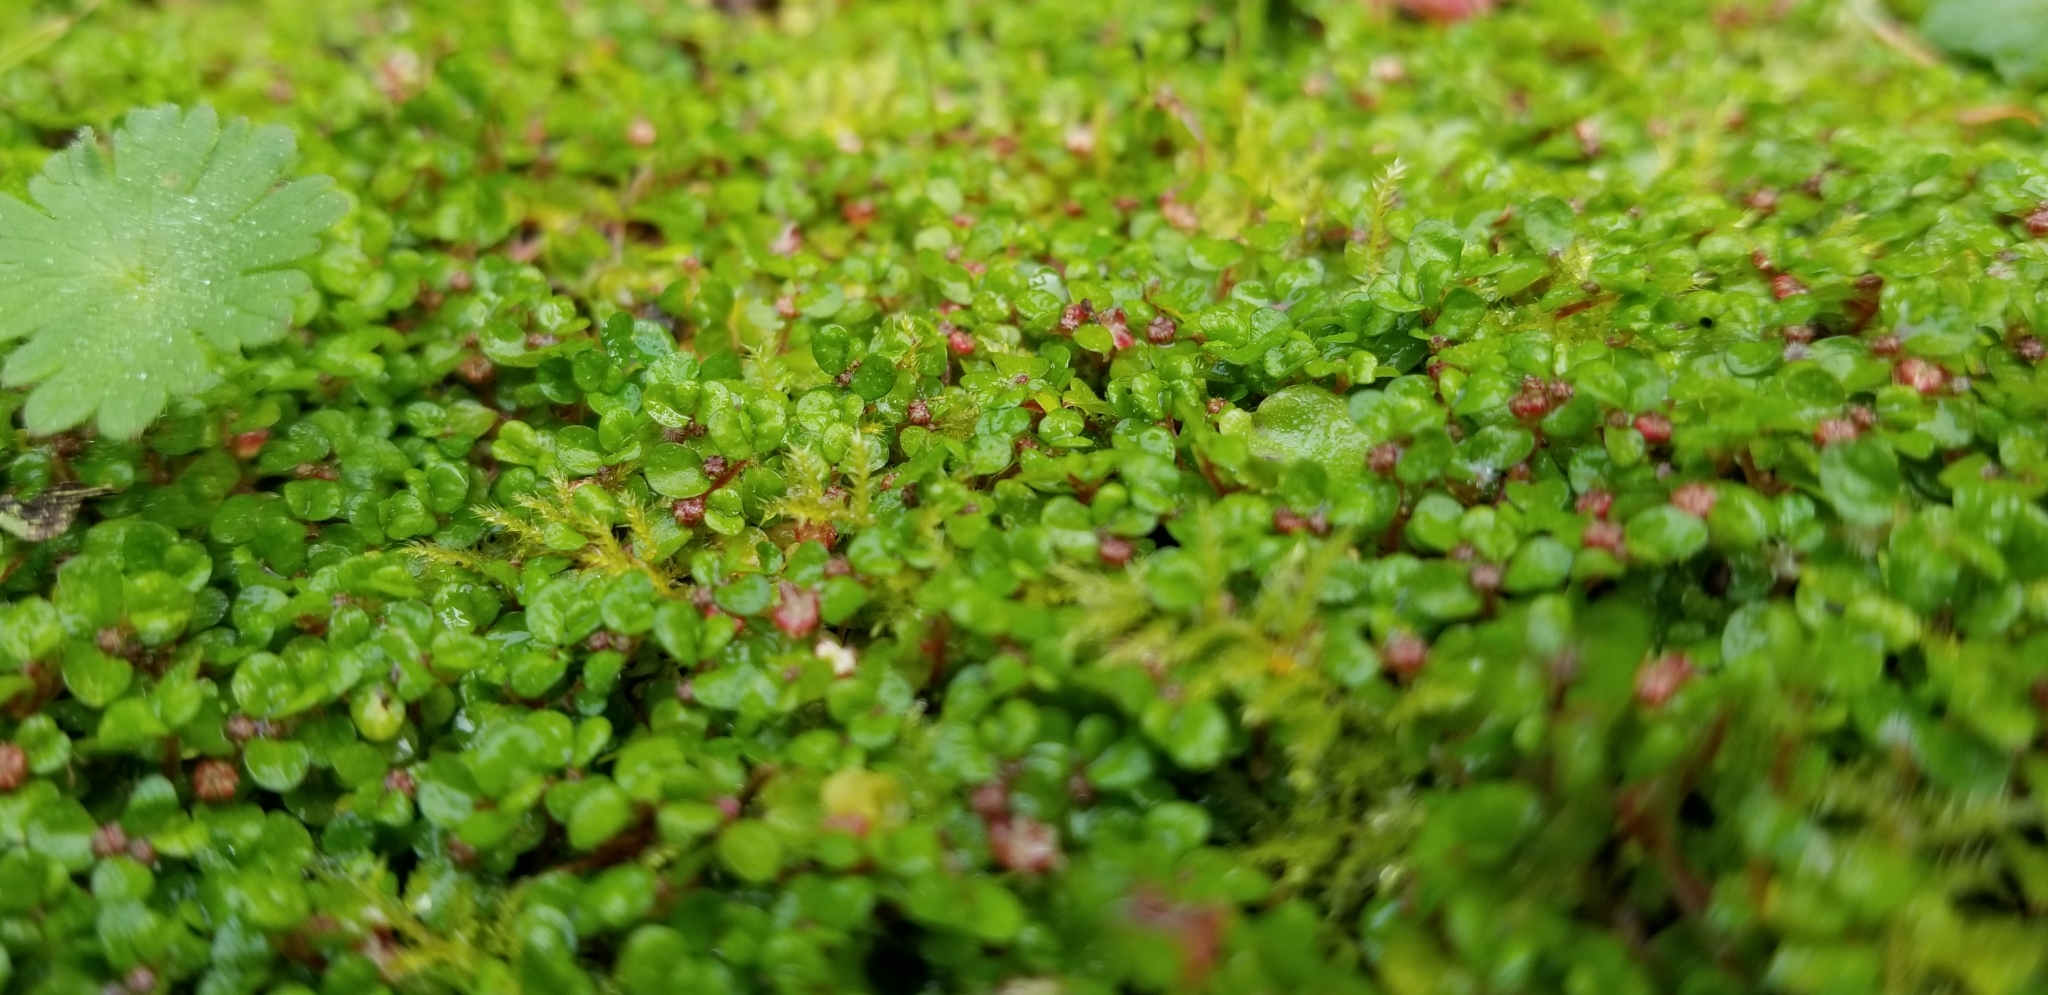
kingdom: Plantae
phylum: Tracheophyta
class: Magnoliopsida
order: Rosales
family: Urticaceae
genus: Soleirolia
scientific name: Soleirolia soleirolii
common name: Mind-your-own-business
